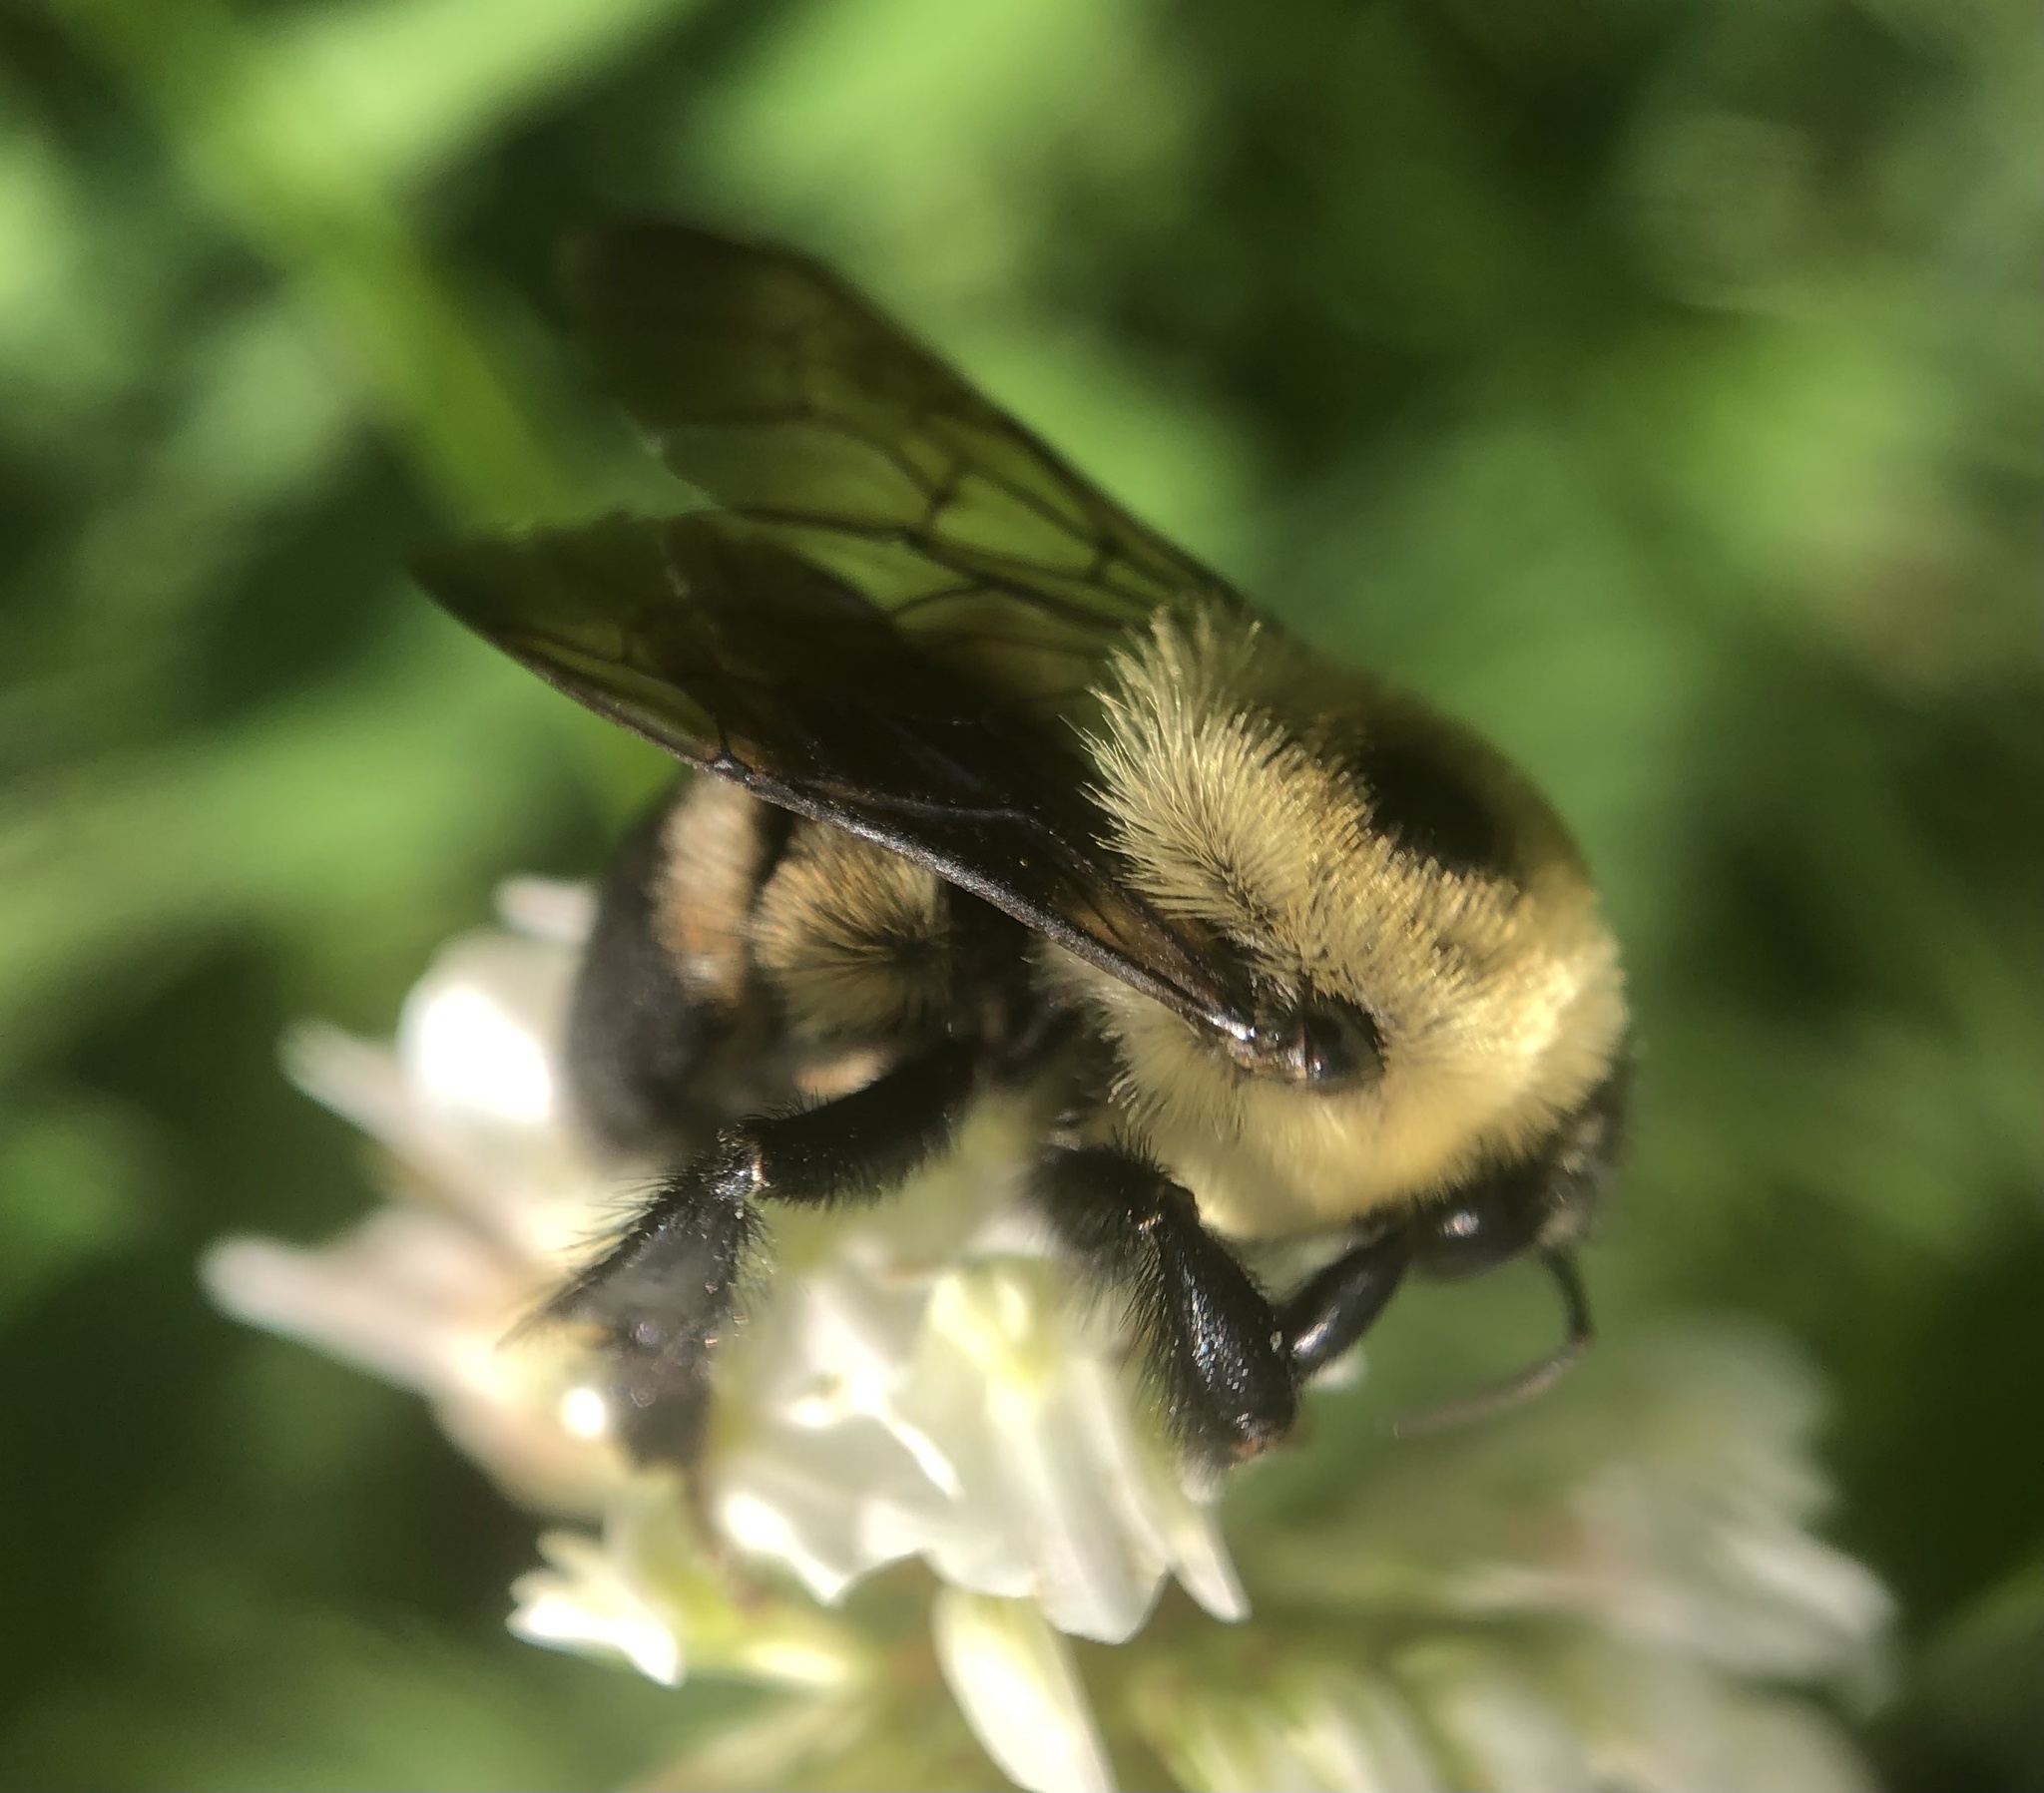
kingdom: Animalia
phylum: Arthropoda
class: Insecta
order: Hymenoptera
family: Apidae
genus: Bombus
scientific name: Bombus griseocollis
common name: Brown-belted bumble bee
